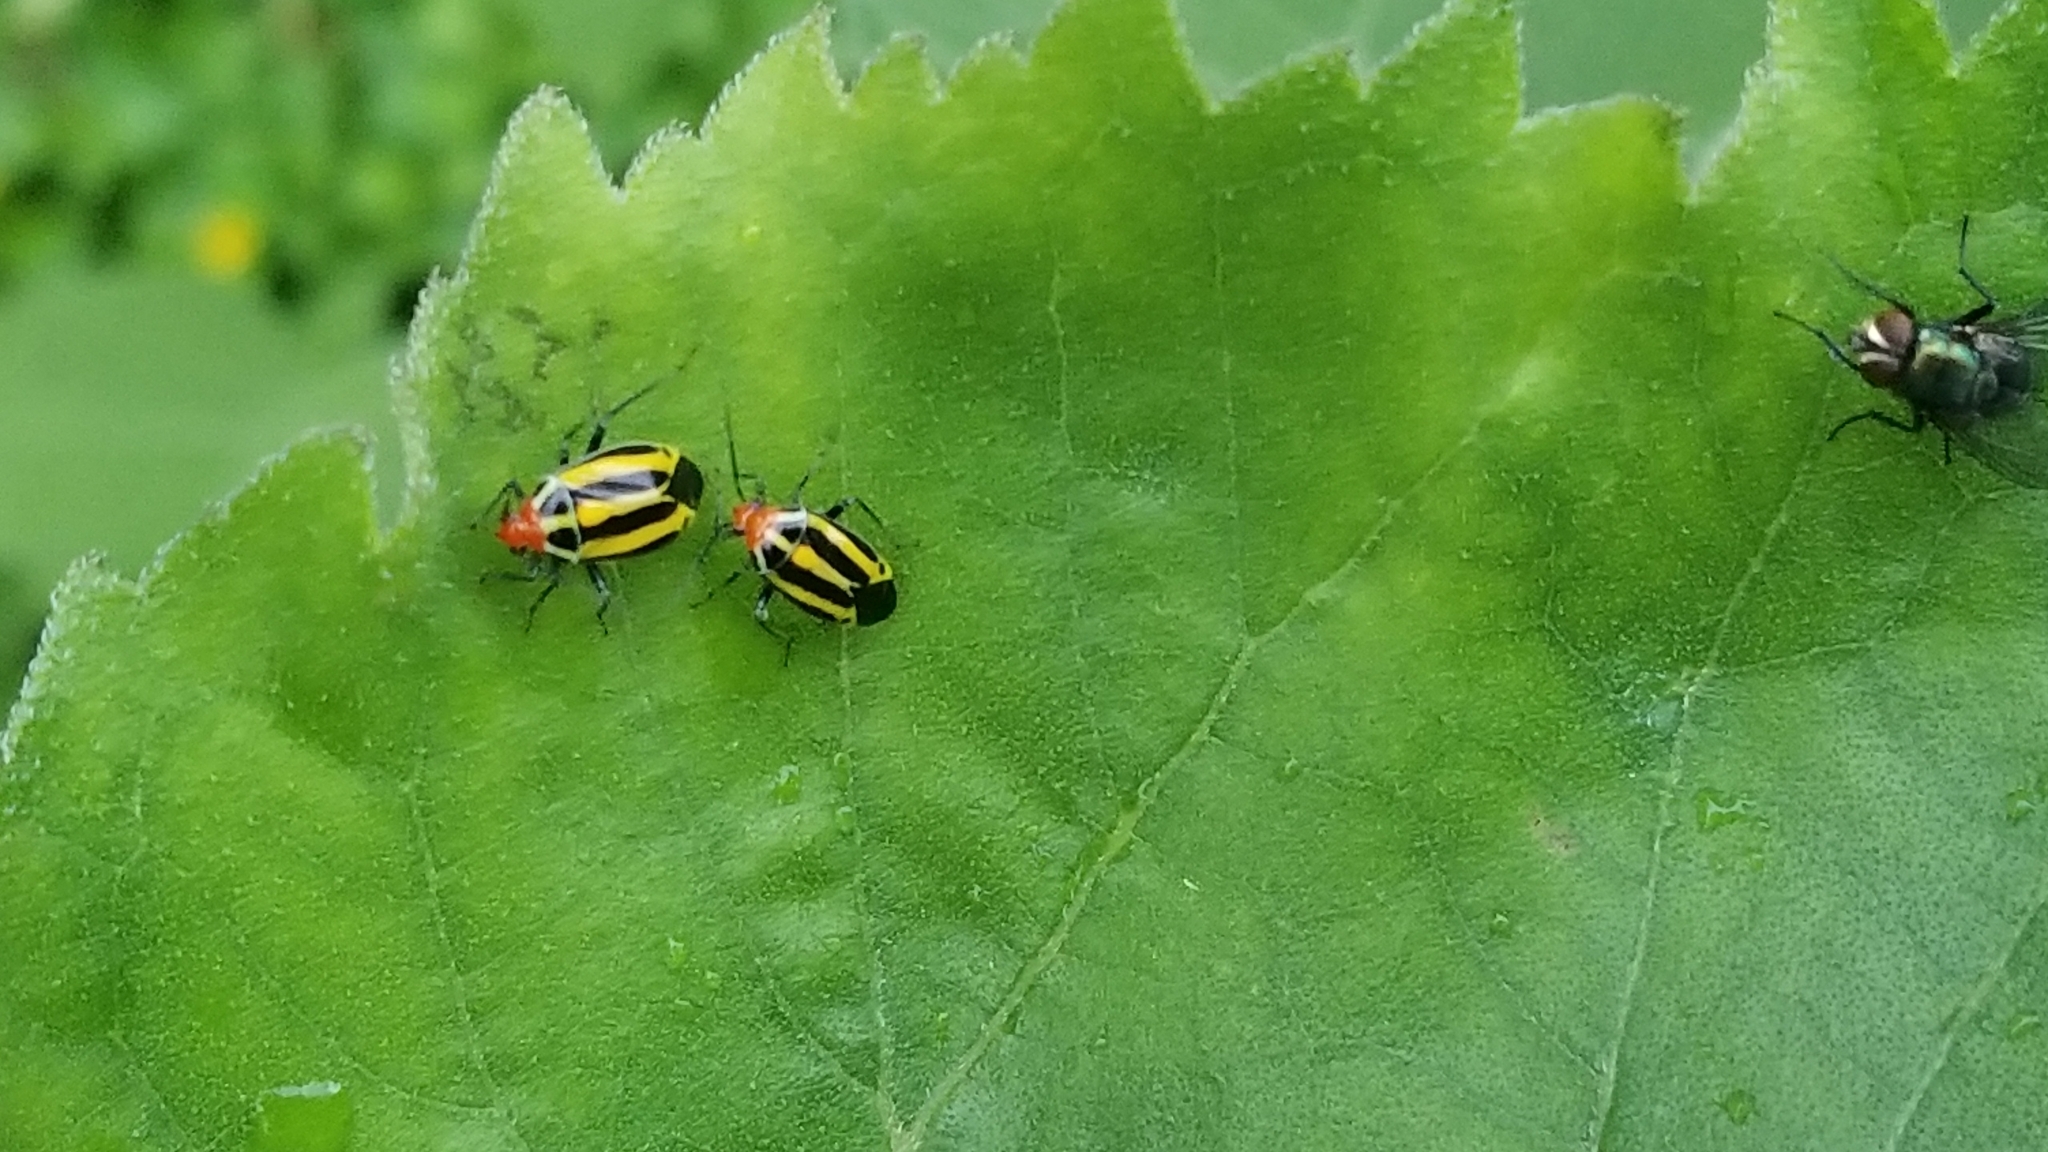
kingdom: Animalia
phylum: Arthropoda
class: Insecta
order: Hemiptera
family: Miridae
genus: Poecilocapsus
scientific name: Poecilocapsus lineatus
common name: Four-lined plant bug
